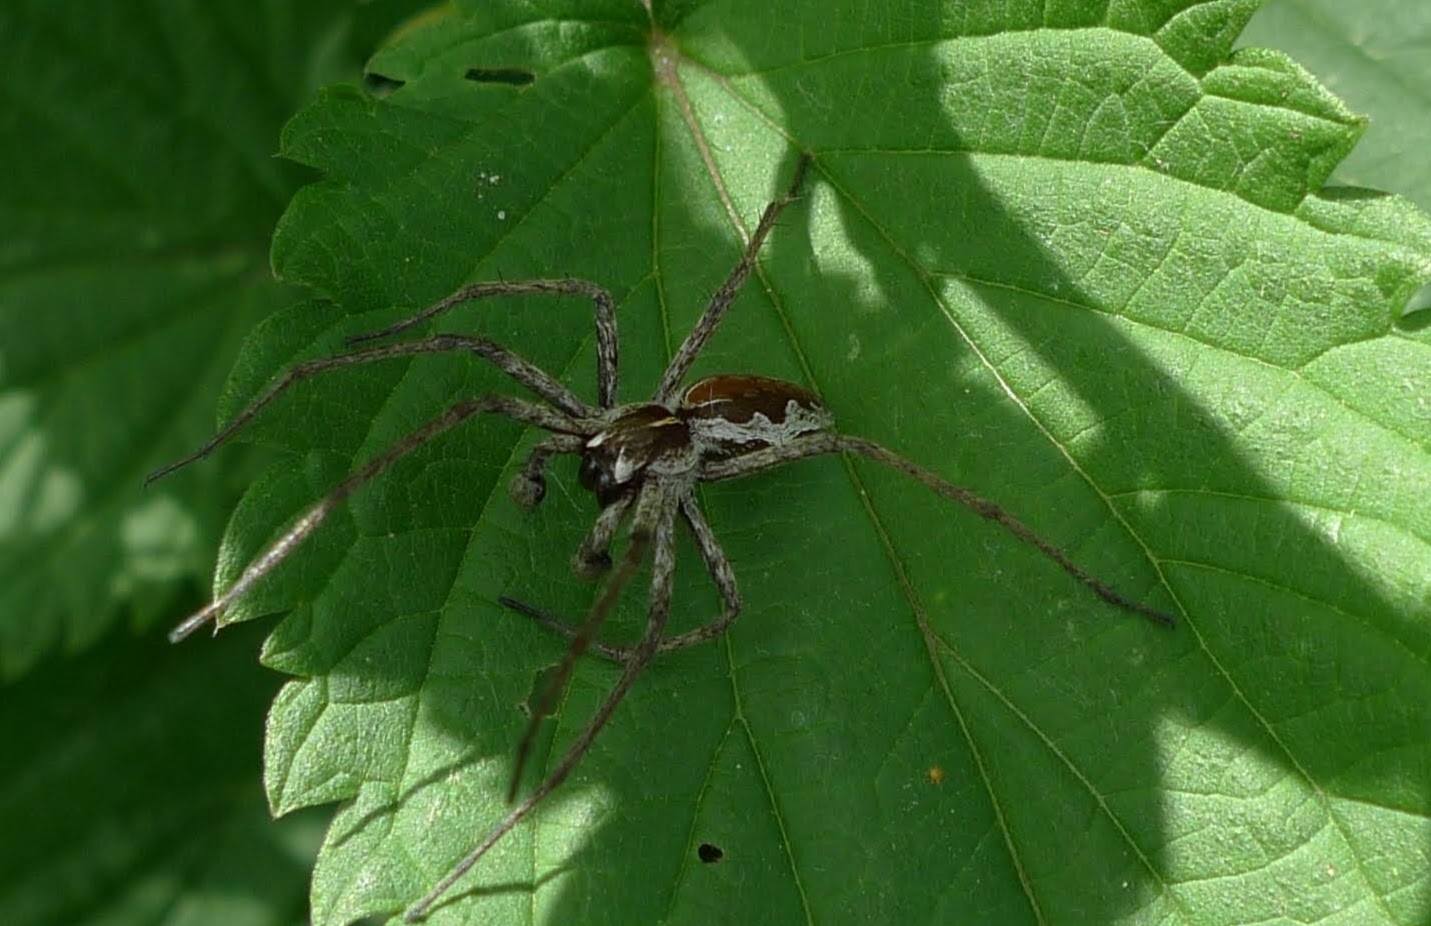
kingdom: Animalia
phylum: Arthropoda
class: Arachnida
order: Araneae
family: Pisauridae
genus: Pisaura
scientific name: Pisaura mirabilis
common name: Tent spider
